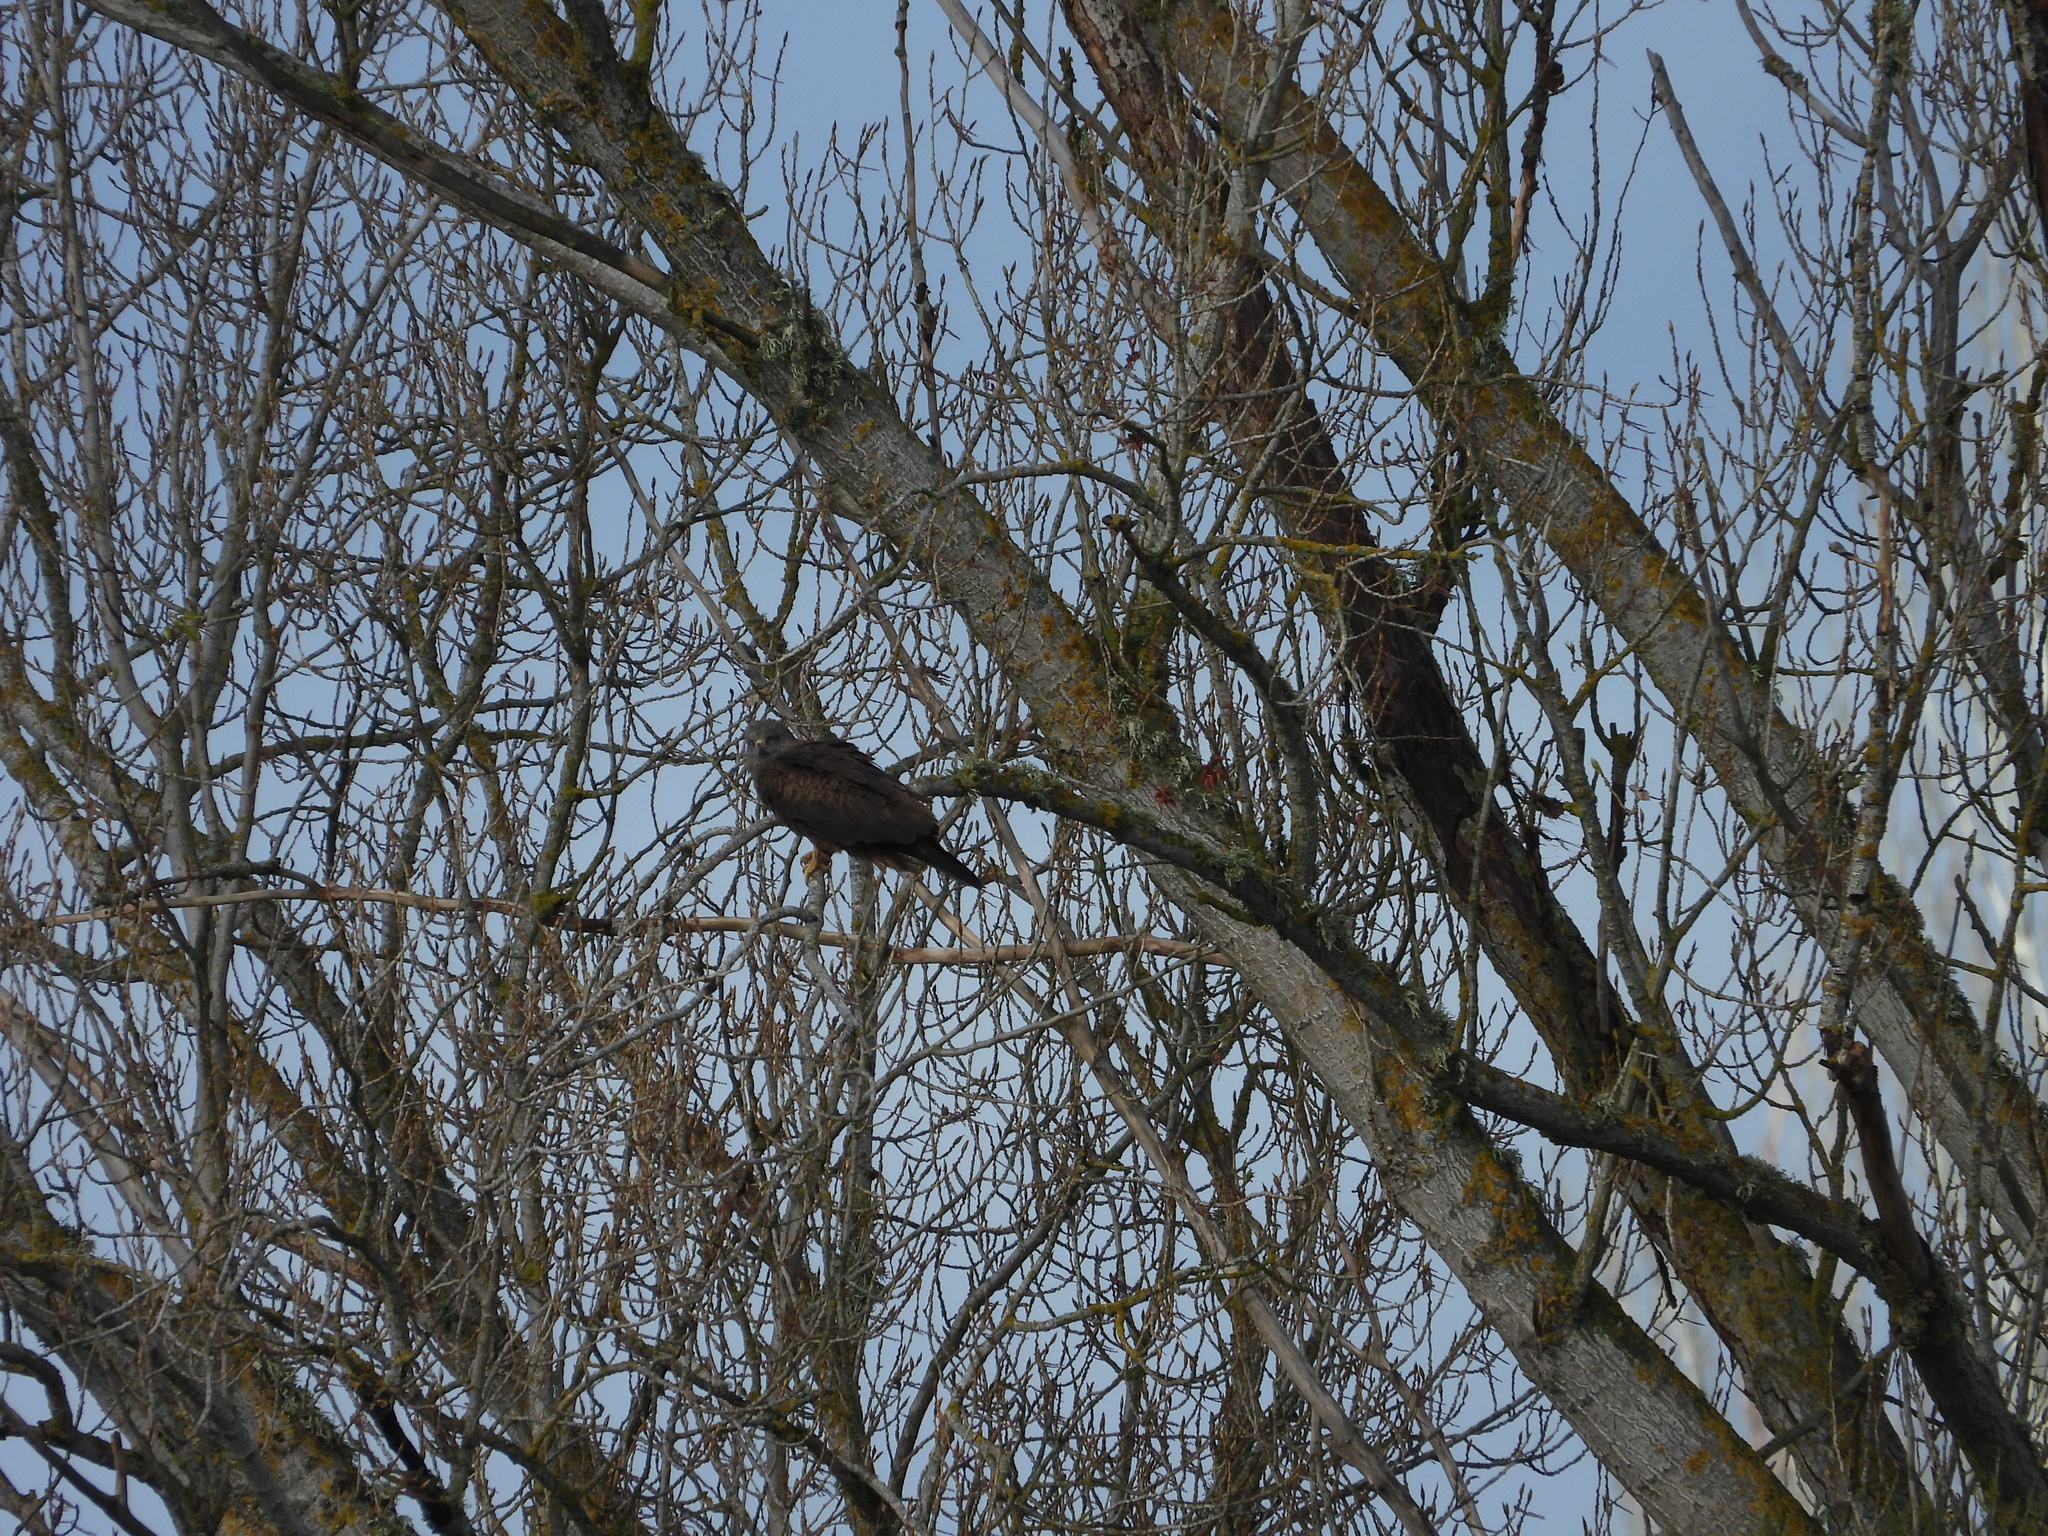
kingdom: Animalia
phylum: Chordata
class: Aves
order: Accipitriformes
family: Accipitridae
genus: Milvus
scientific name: Milvus migrans
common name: Black kite
